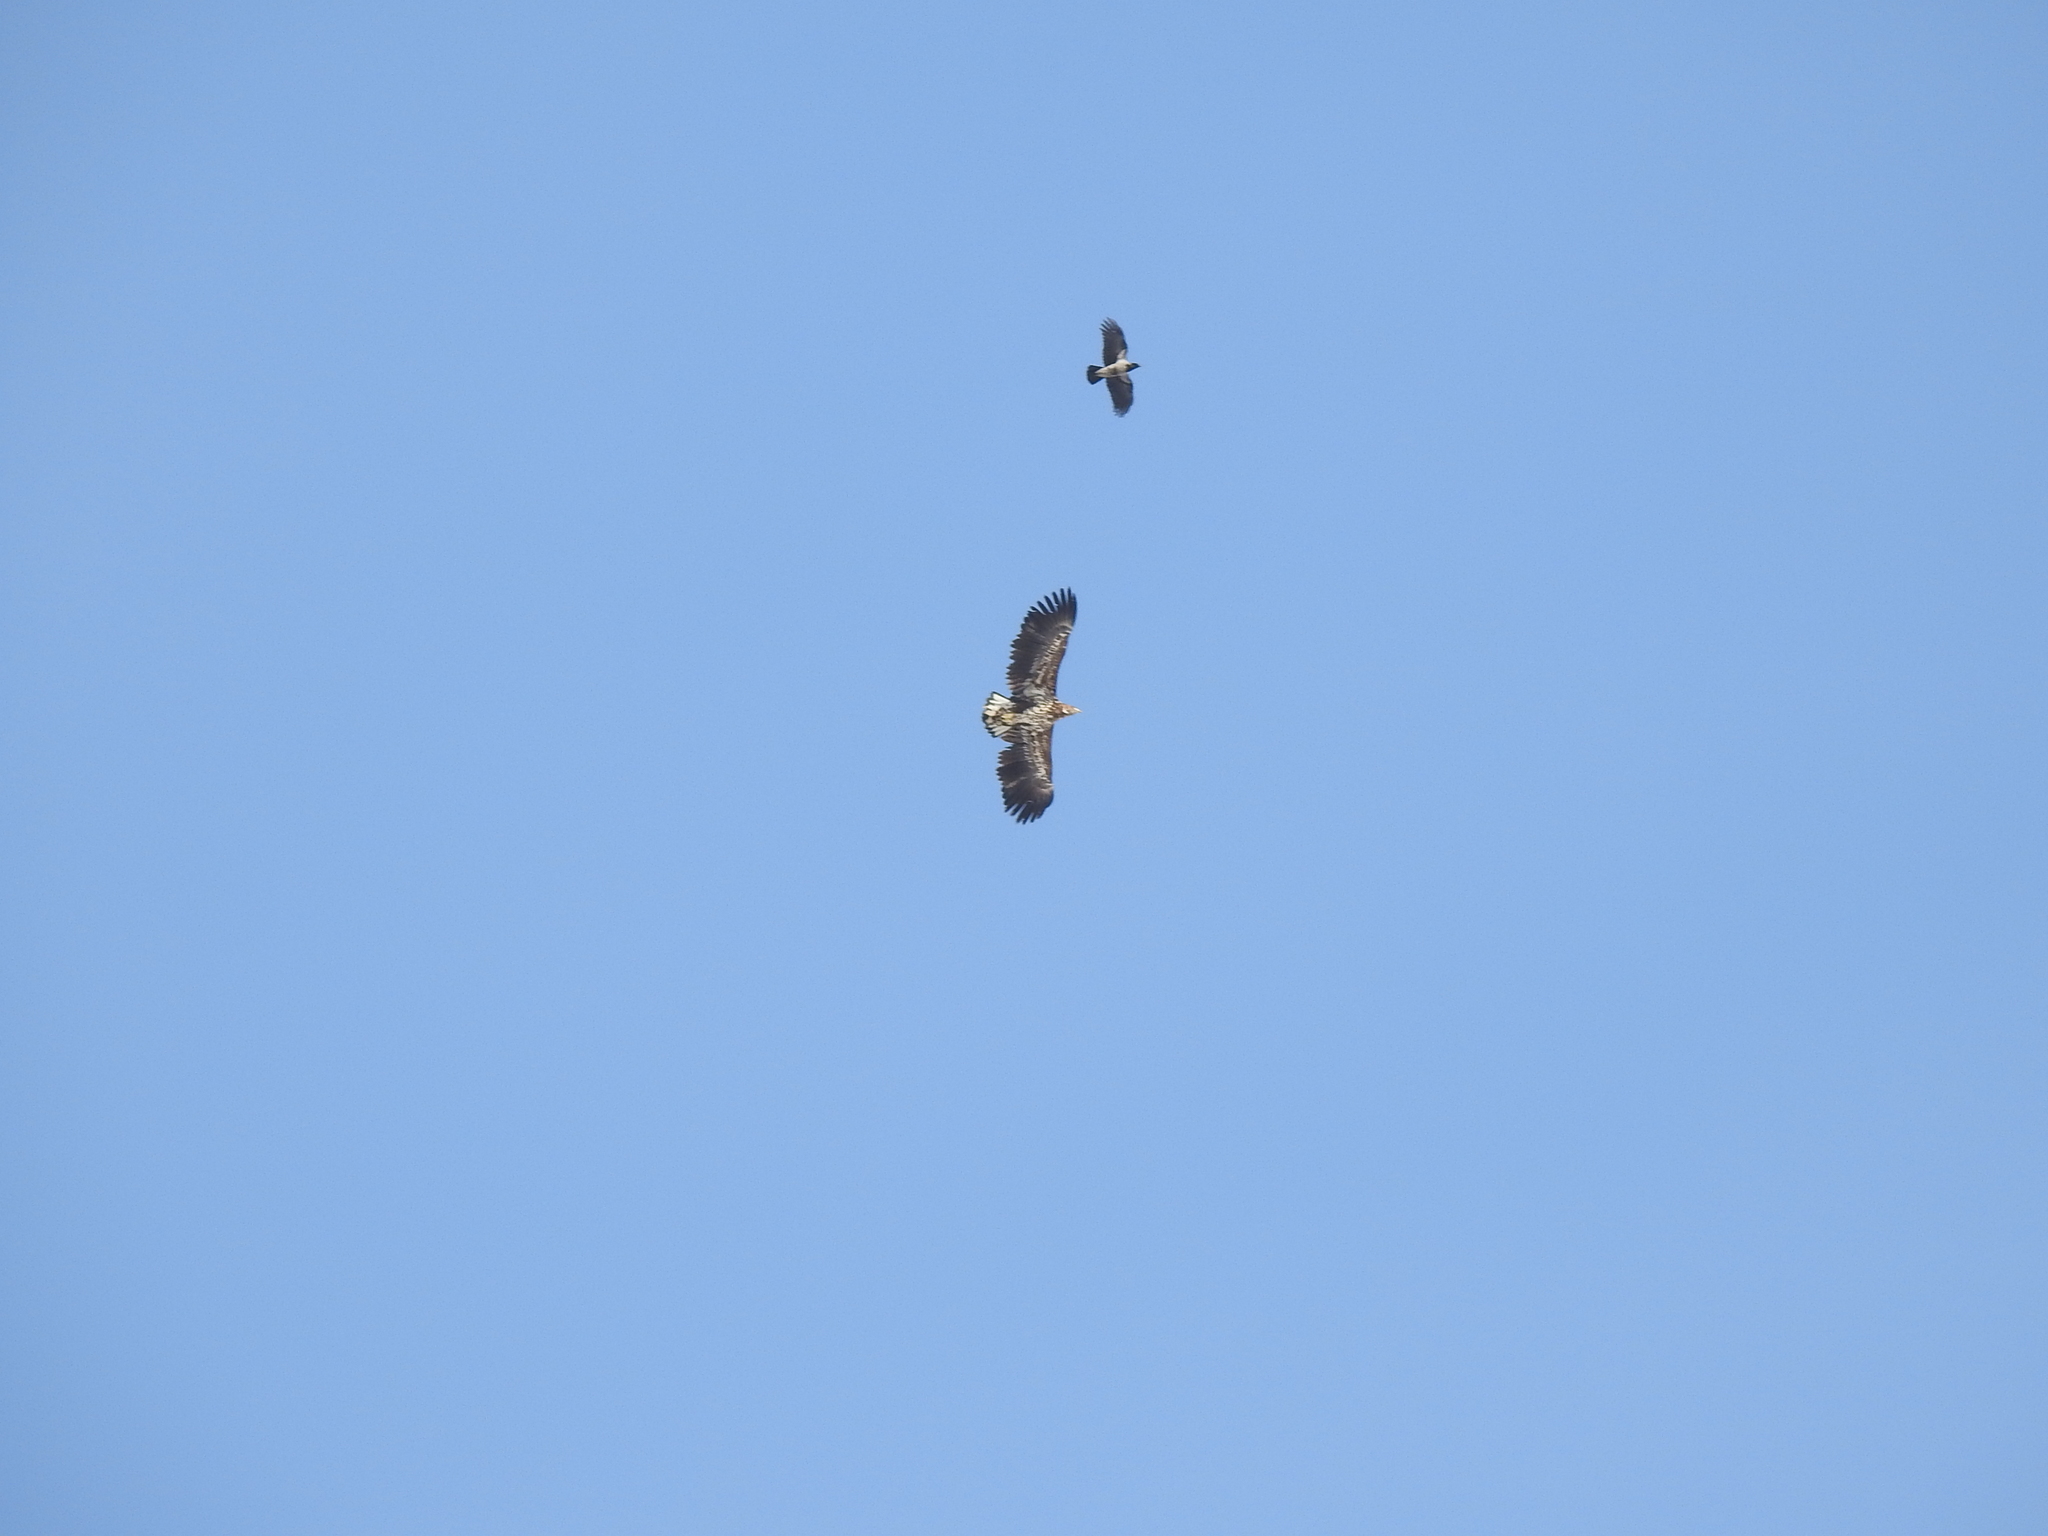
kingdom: Animalia
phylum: Chordata
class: Aves
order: Accipitriformes
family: Accipitridae
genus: Haliaeetus
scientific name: Haliaeetus albicilla
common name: White-tailed eagle
